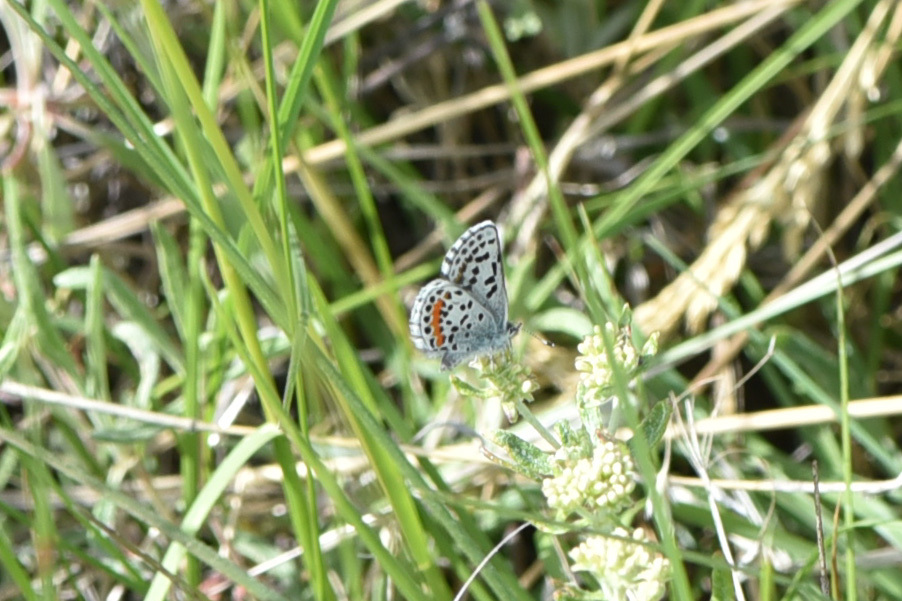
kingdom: Animalia
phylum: Arthropoda
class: Insecta
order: Lepidoptera
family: Lycaenidae
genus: Euphilotes
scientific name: Euphilotes
